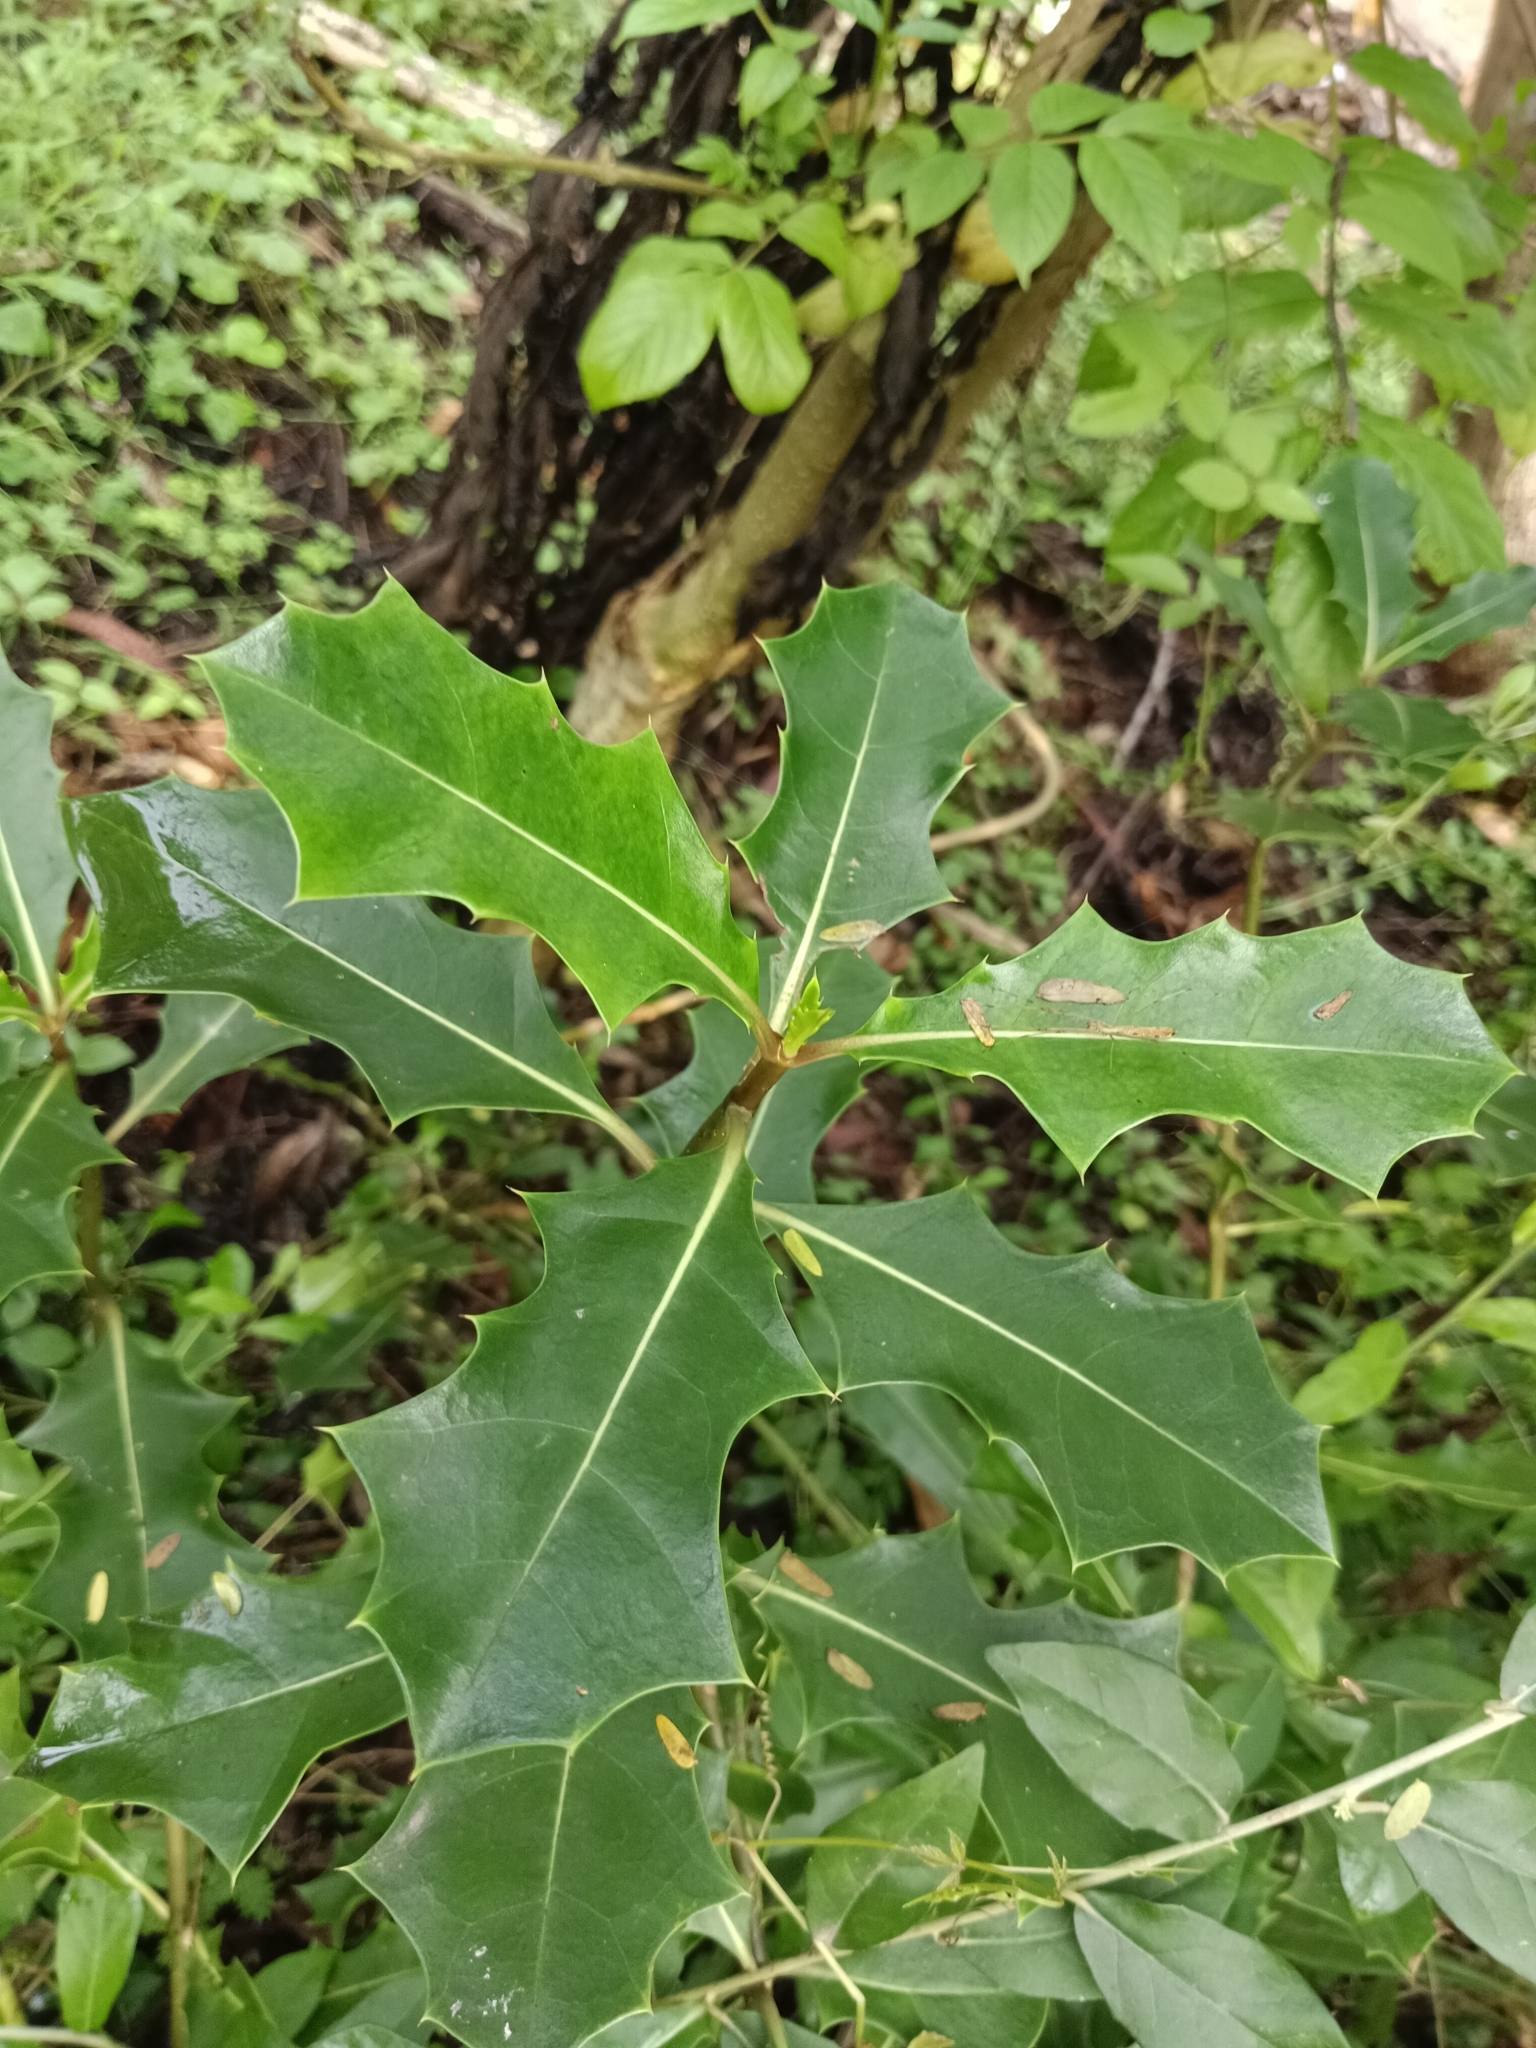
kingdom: Plantae
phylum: Tracheophyta
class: Magnoliopsida
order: Lamiales
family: Acanthaceae
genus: Acanthus
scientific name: Acanthus ilicifolius
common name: Holy mangrove
